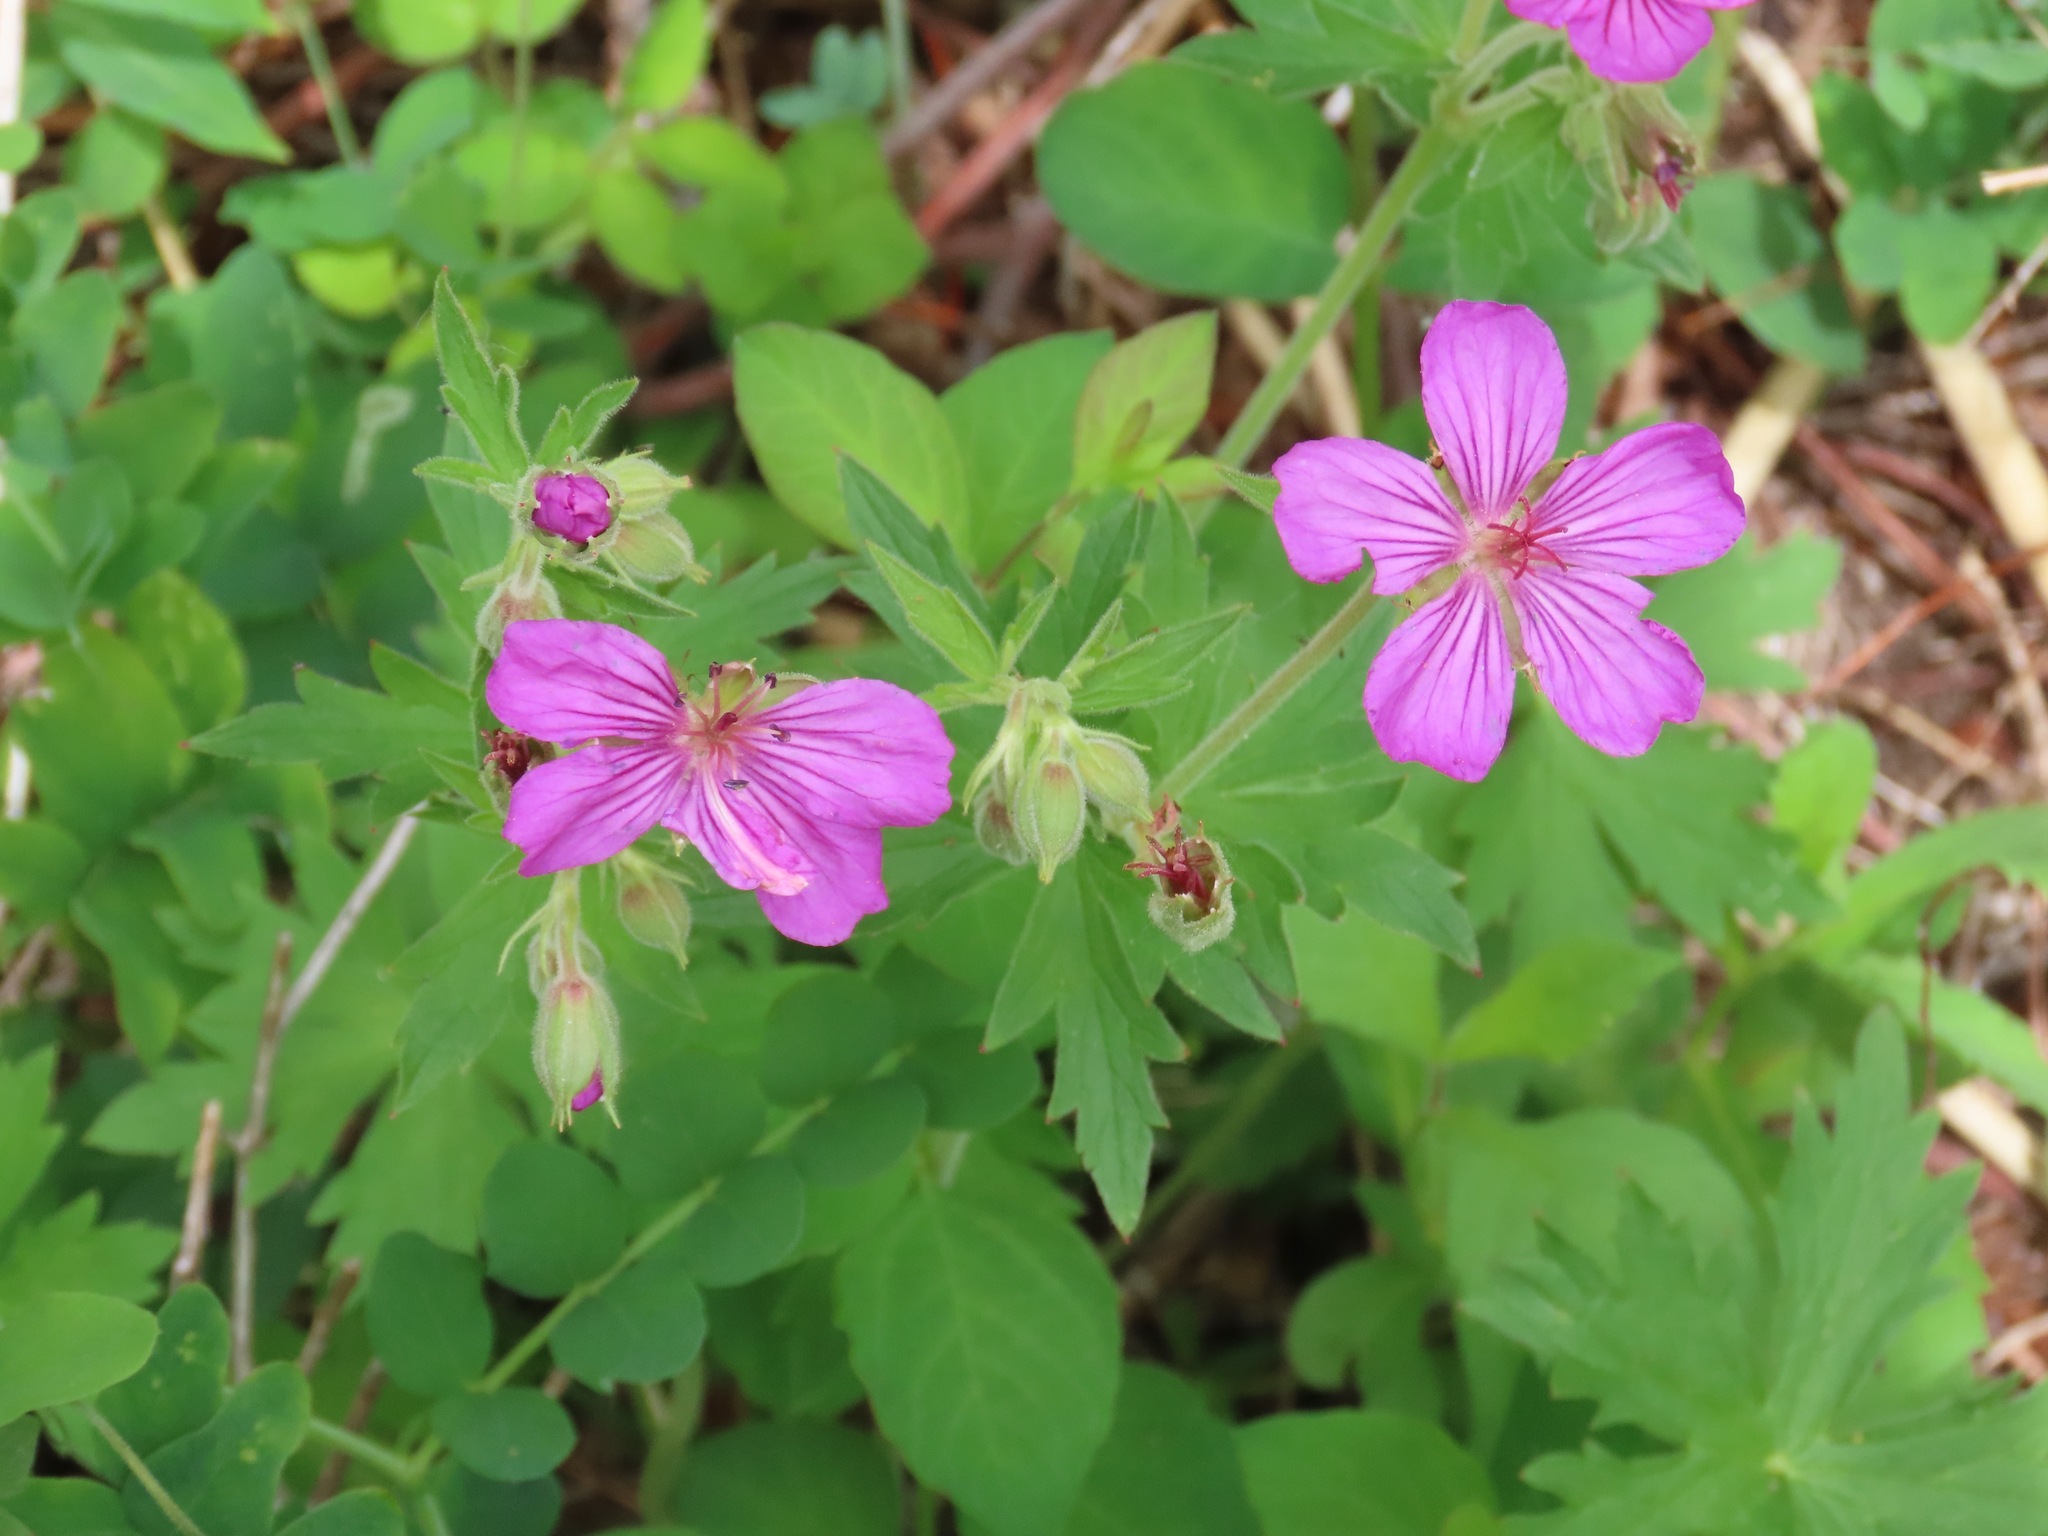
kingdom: Plantae
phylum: Tracheophyta
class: Magnoliopsida
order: Geraniales
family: Geraniaceae
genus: Geranium
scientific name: Geranium viscosissimum
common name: Purple geranium
